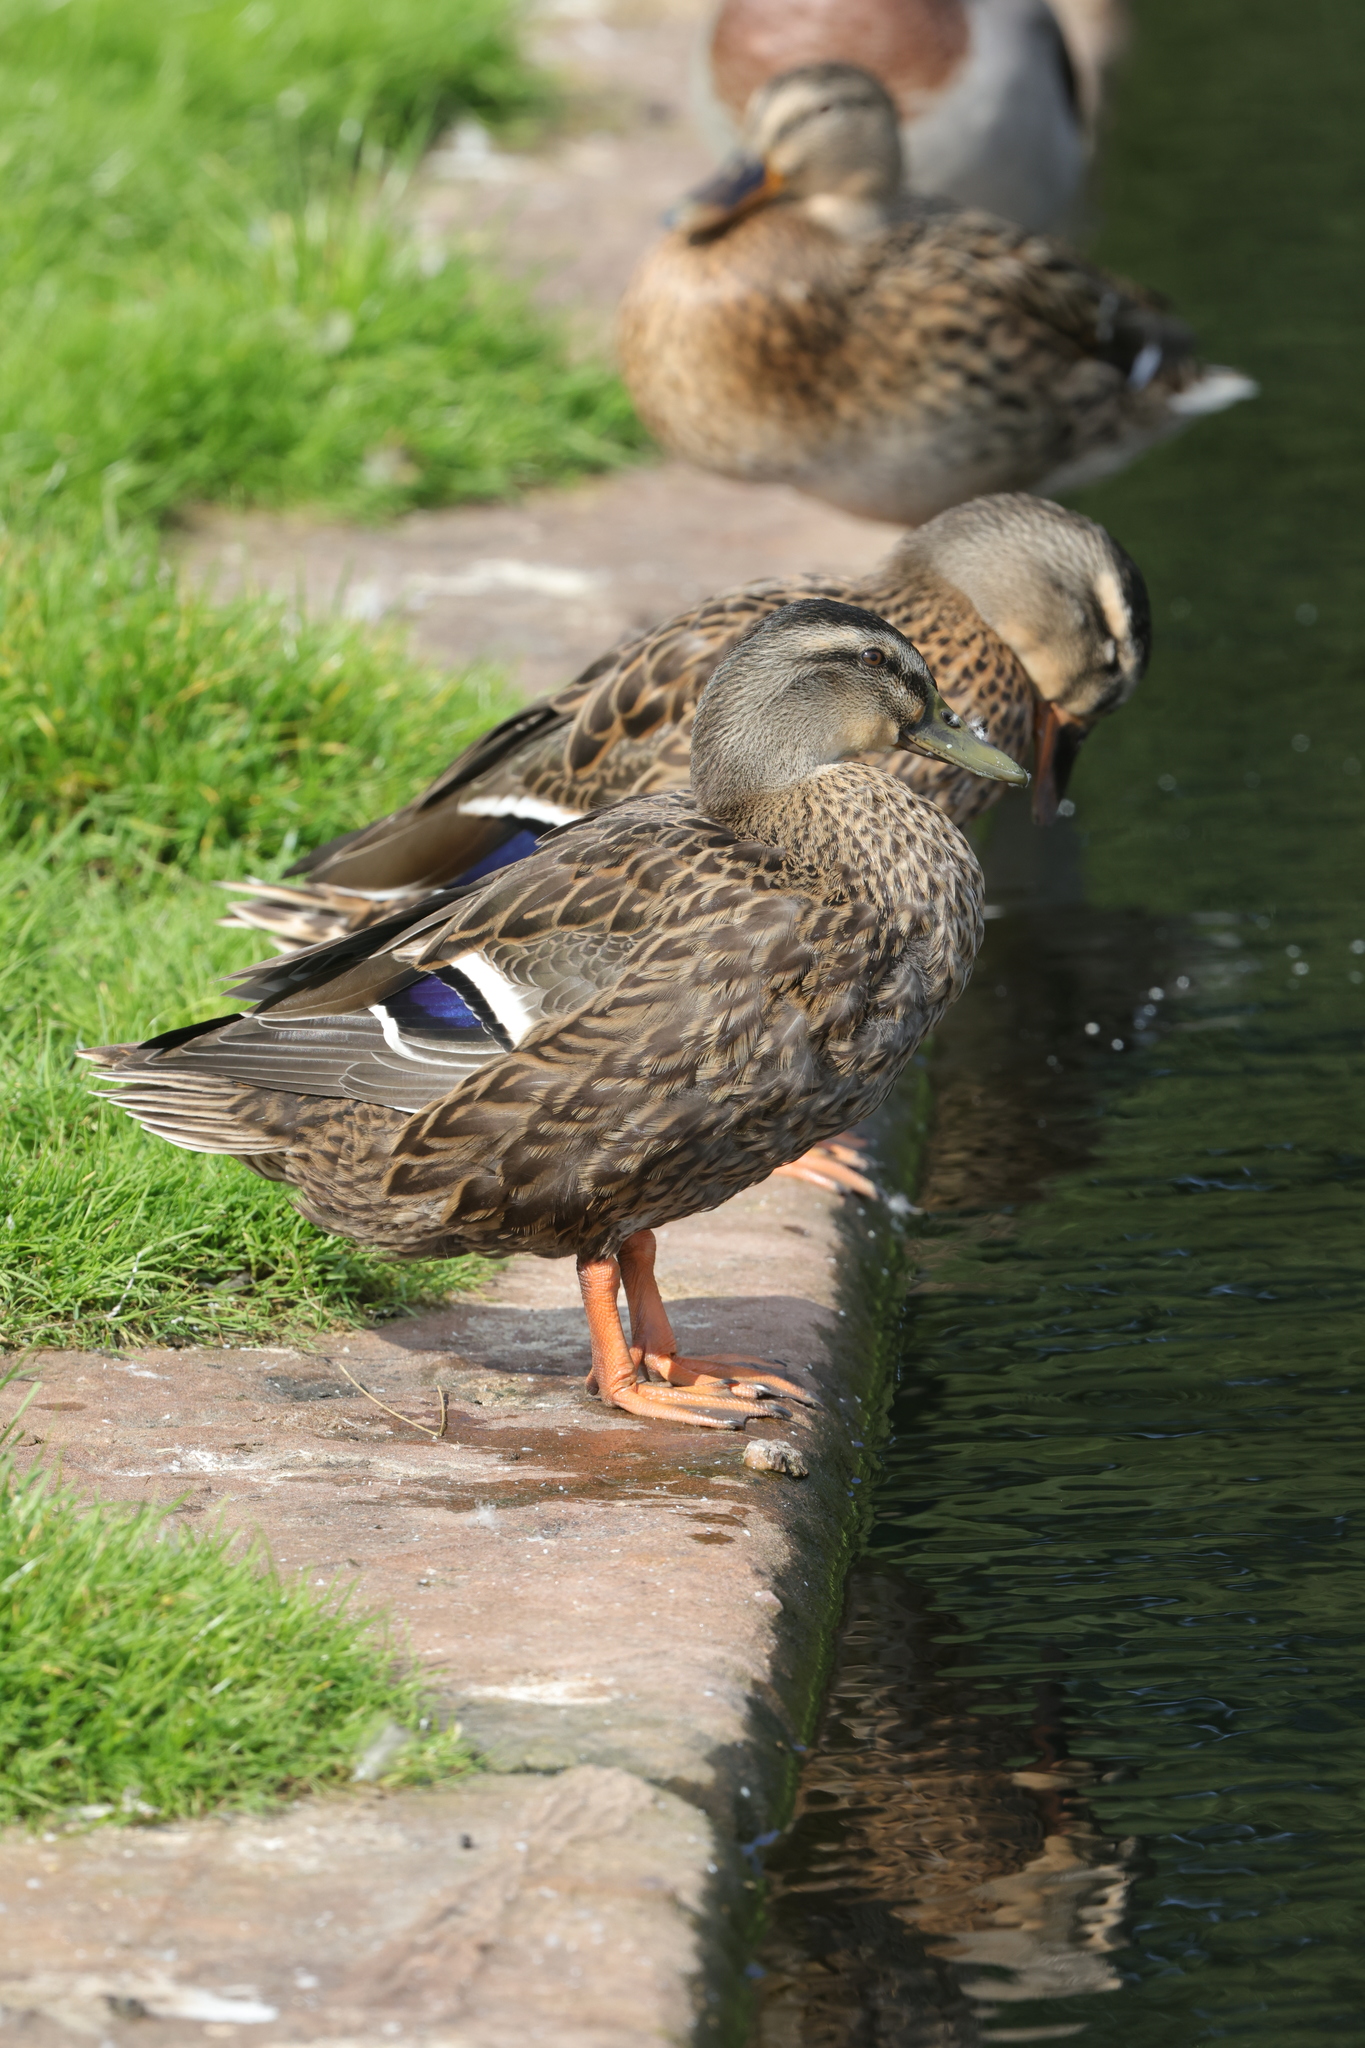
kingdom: Animalia
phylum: Chordata
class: Aves
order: Anseriformes
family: Anatidae
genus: Anas
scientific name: Anas platyrhynchos
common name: Mallard
